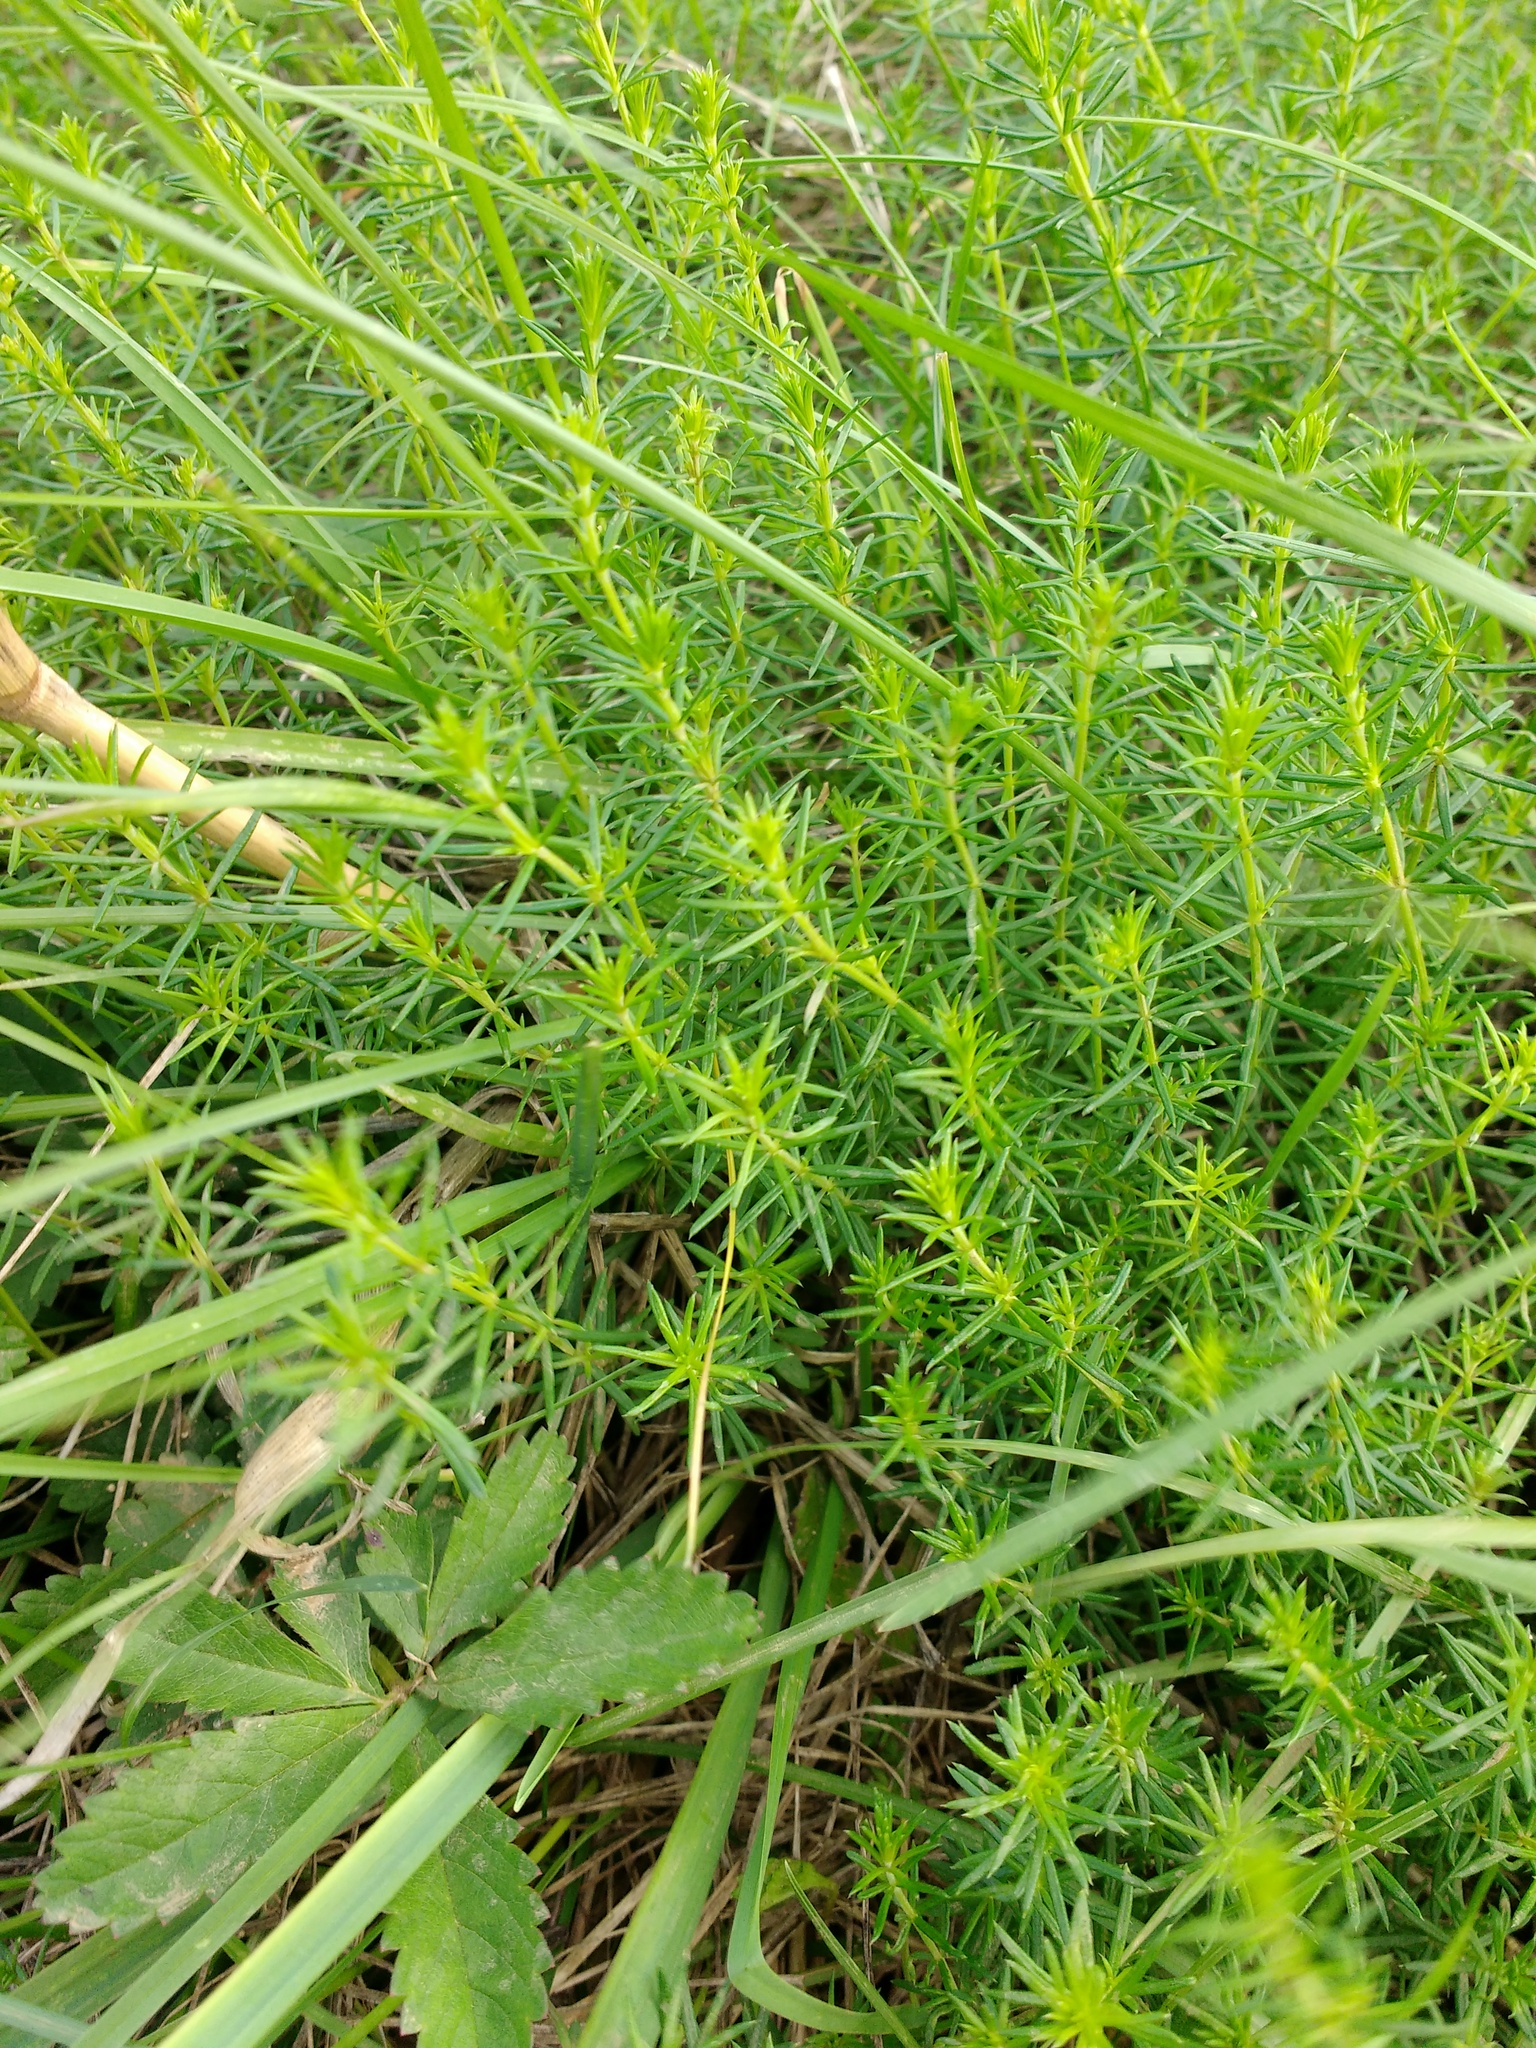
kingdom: Plantae
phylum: Tracheophyta
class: Magnoliopsida
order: Gentianales
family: Rubiaceae
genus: Galium
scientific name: Galium verum
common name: Lady's bedstraw
